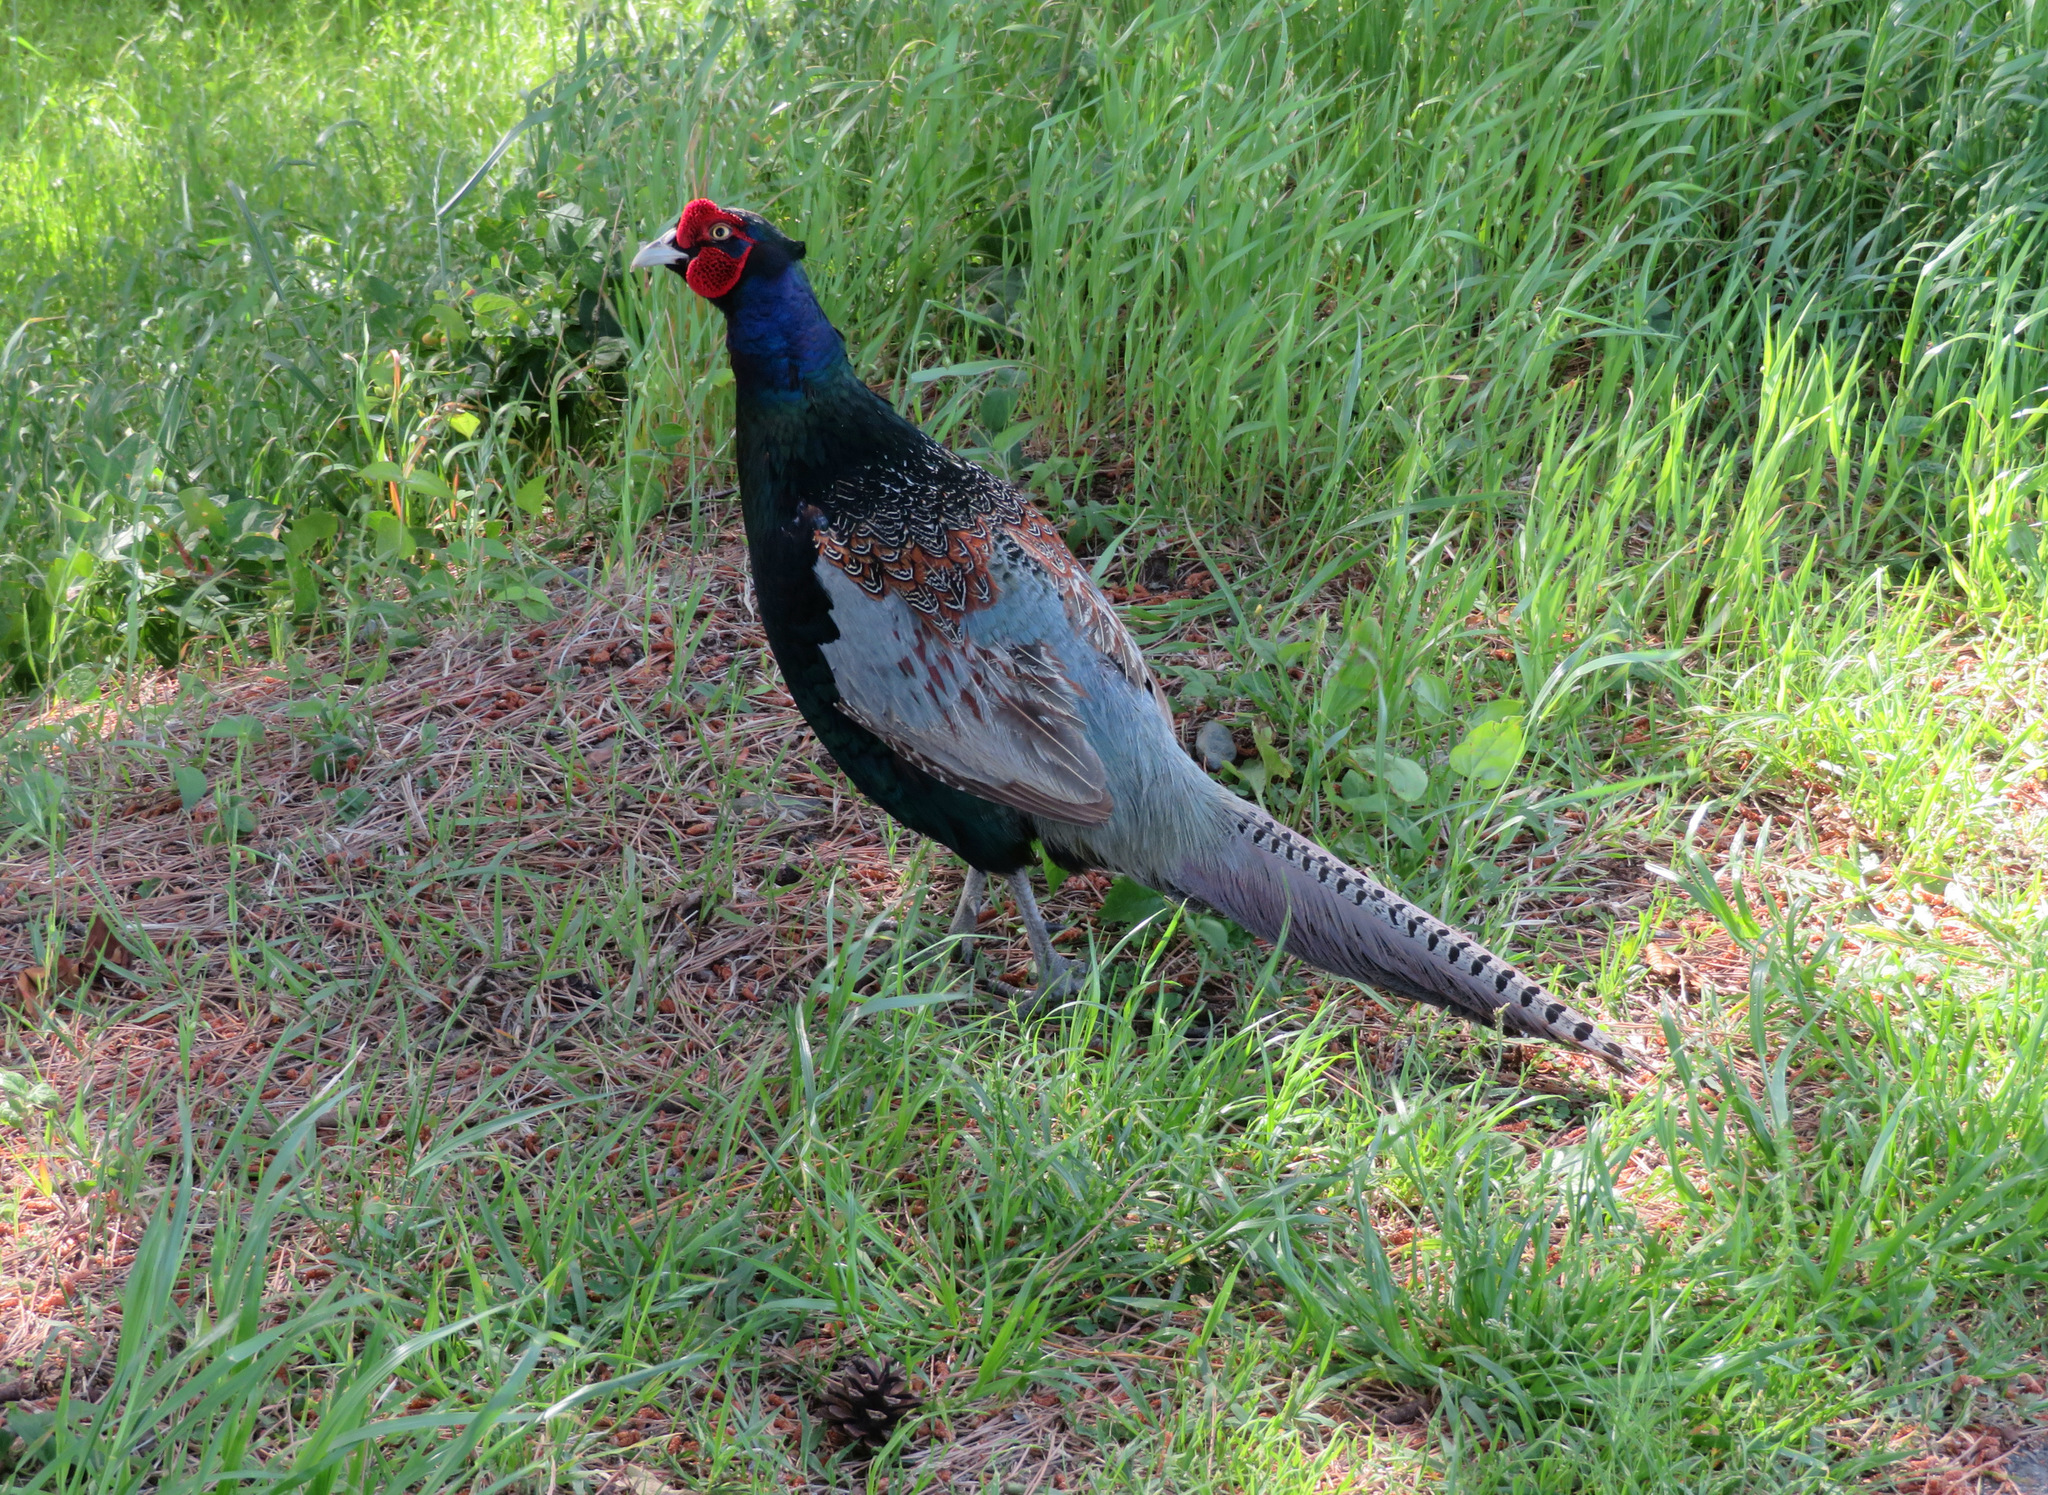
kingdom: Animalia
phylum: Chordata
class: Aves
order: Galliformes
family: Phasianidae
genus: Phasianus
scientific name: Phasianus versicolor
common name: Green pheasant
